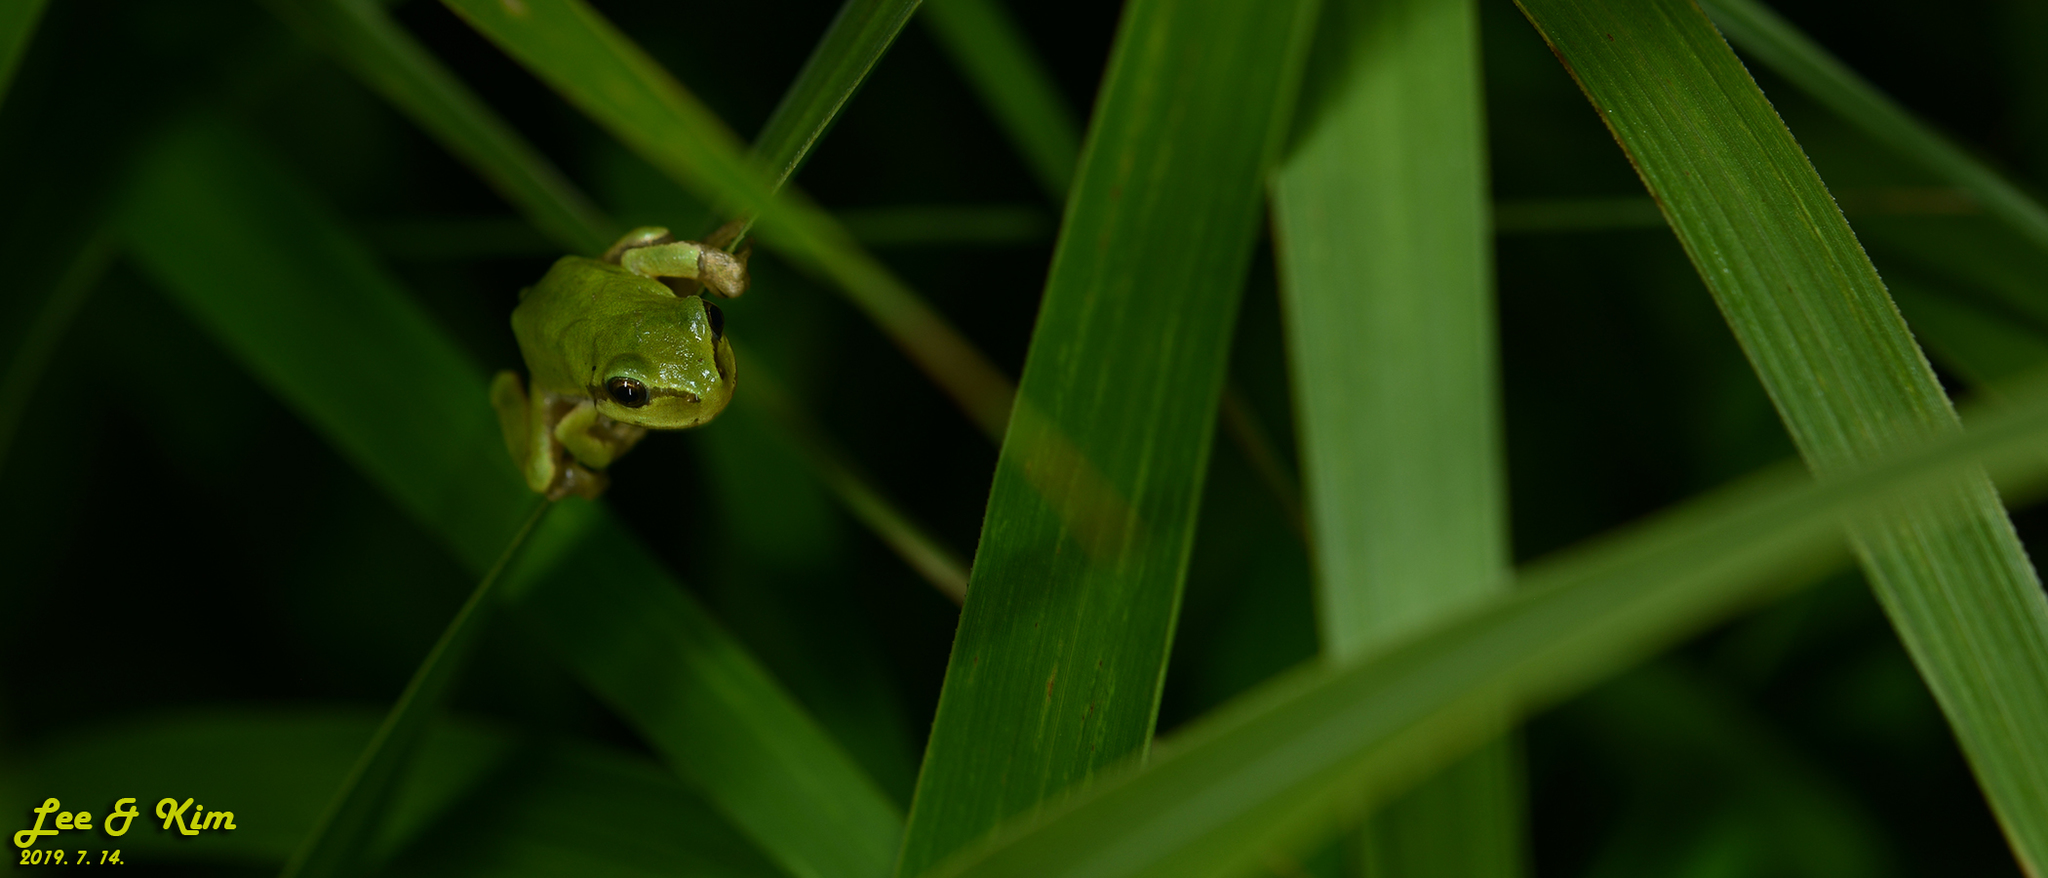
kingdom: Animalia
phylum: Chordata
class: Amphibia
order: Anura
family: Hylidae
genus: Dryophytes
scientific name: Dryophytes japonicus
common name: Japanese treefrog
